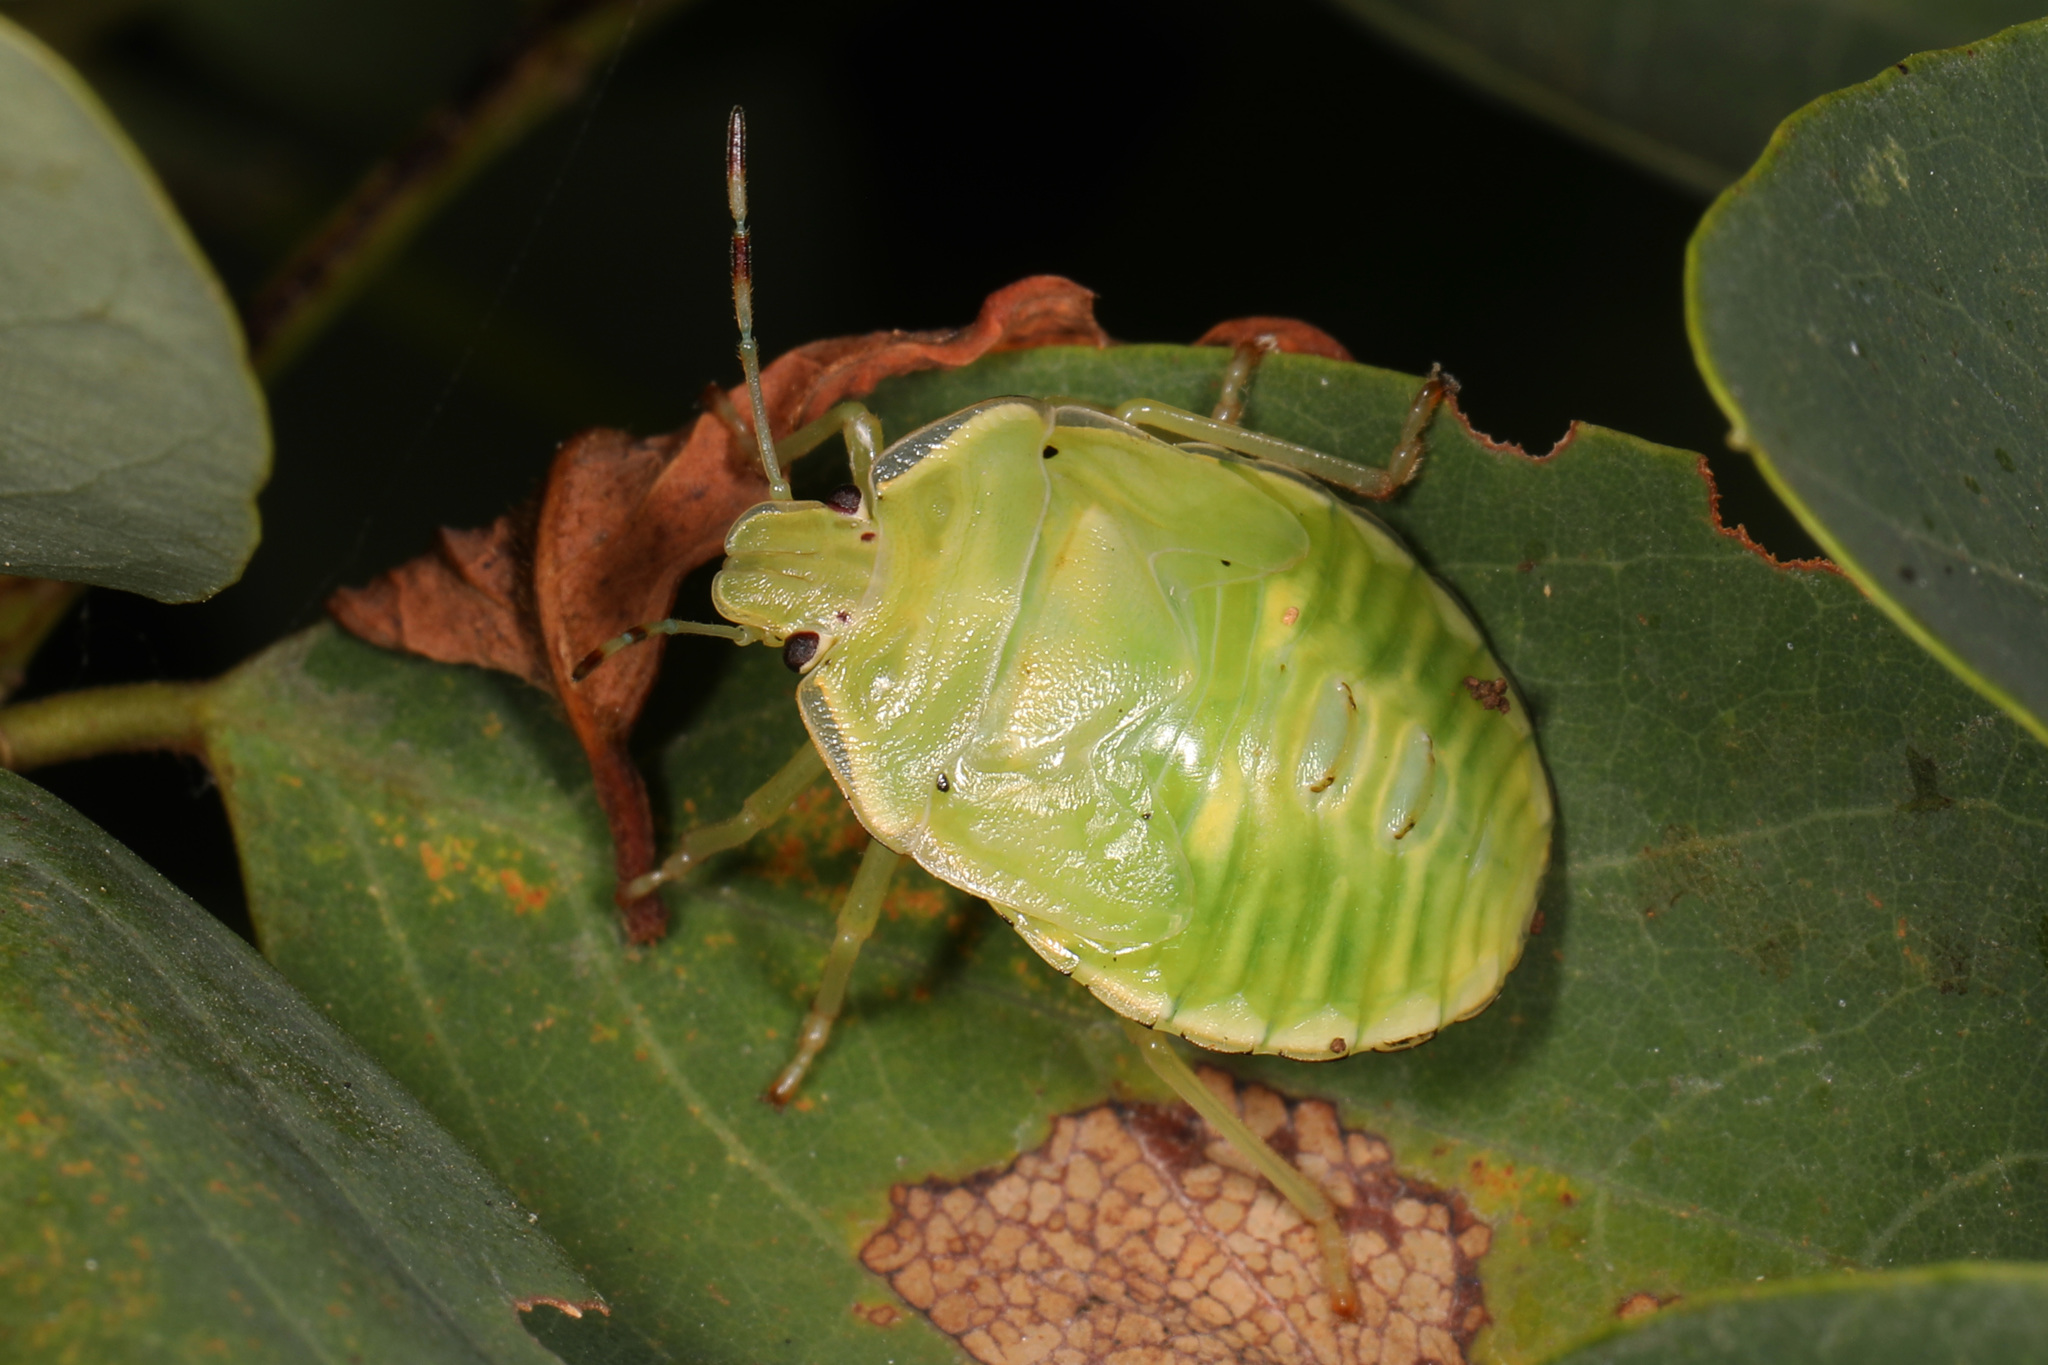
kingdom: Animalia
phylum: Arthropoda
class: Insecta
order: Hemiptera
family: Pentatomidae
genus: Chinavia
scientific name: Chinavia hilaris
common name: Green stink bug
